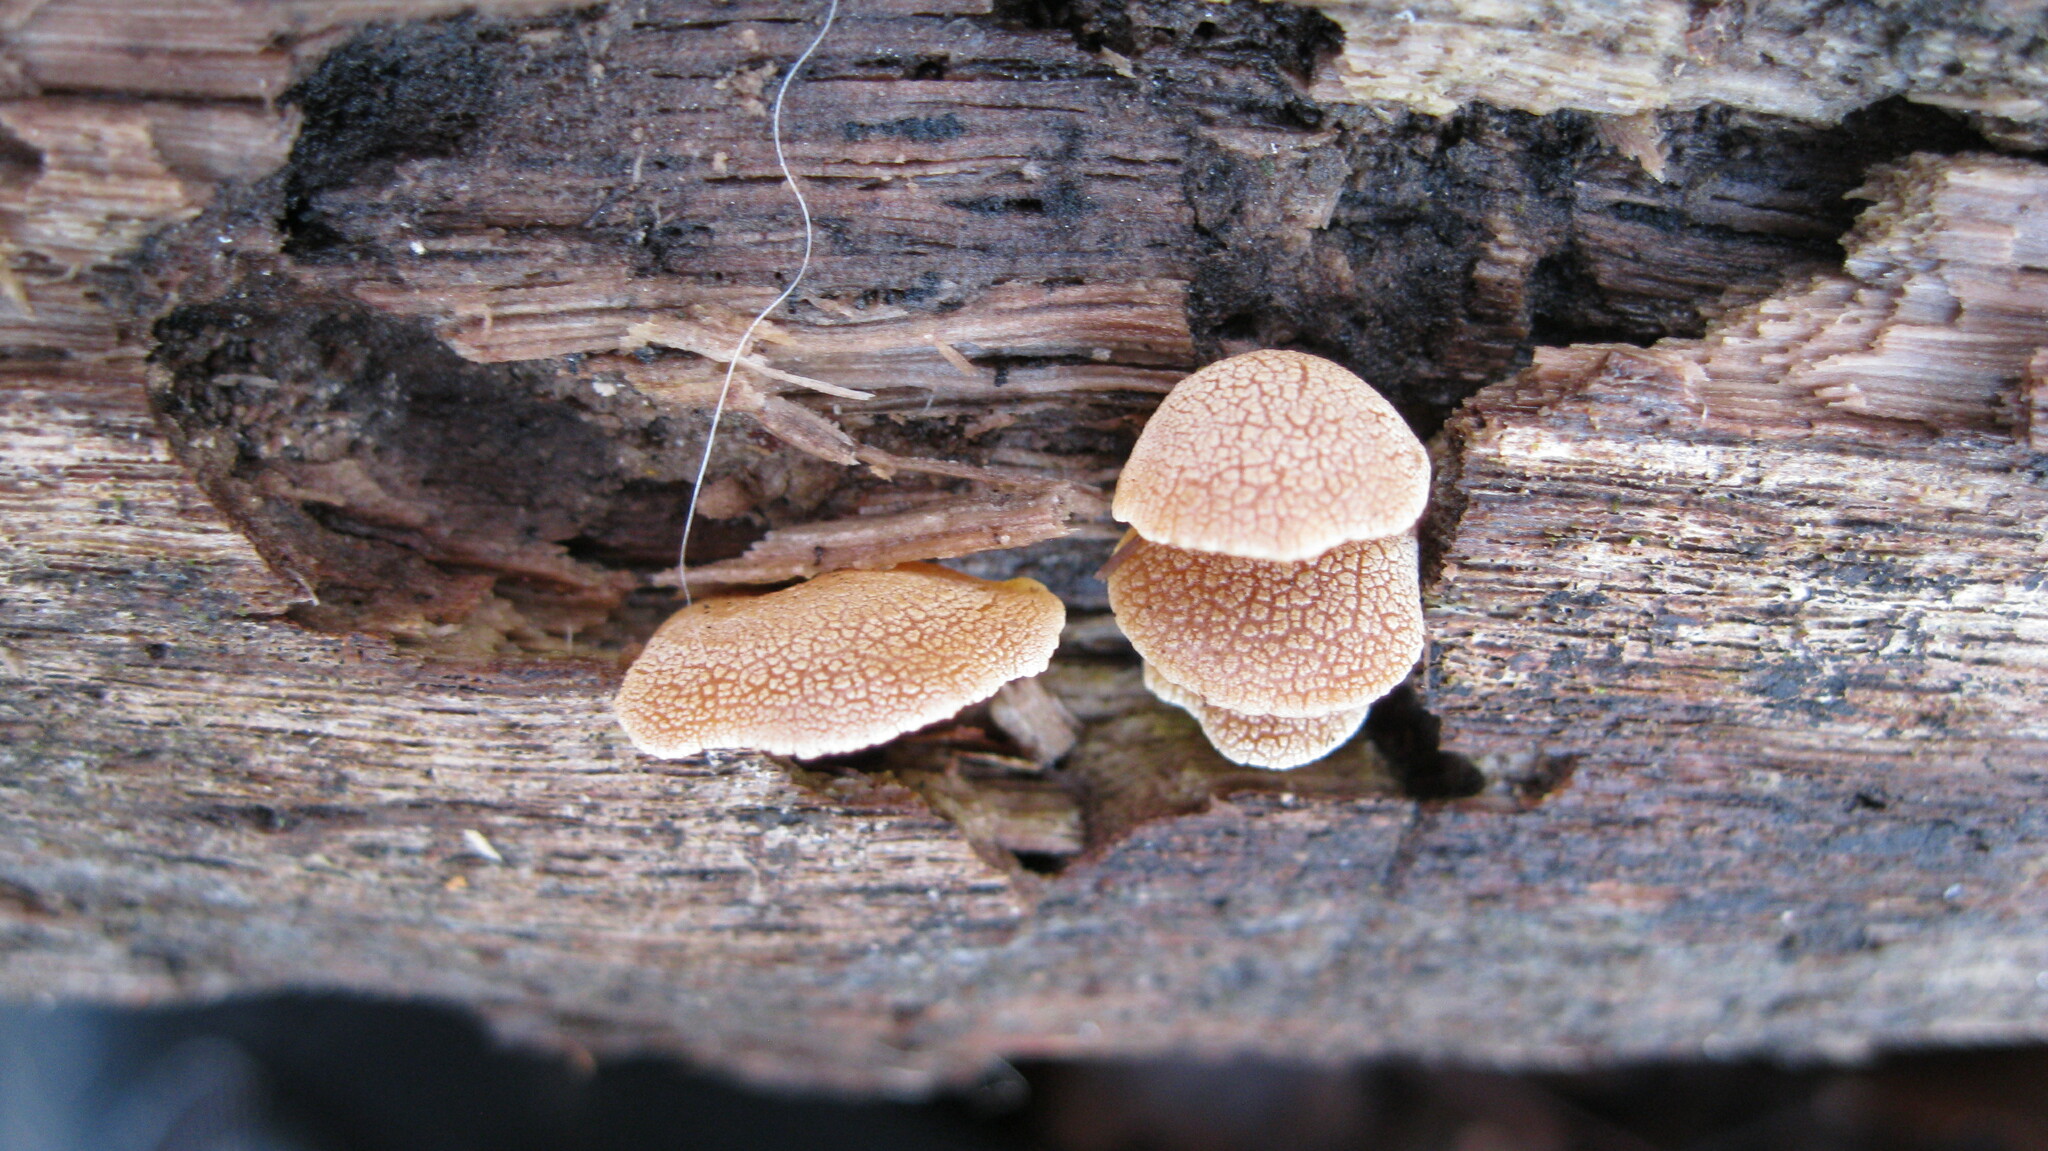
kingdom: Fungi
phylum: Basidiomycota
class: Agaricomycetes
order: Agaricales
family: Mycenaceae
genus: Panellus
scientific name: Panellus stipticus
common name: Bitter oysterling
